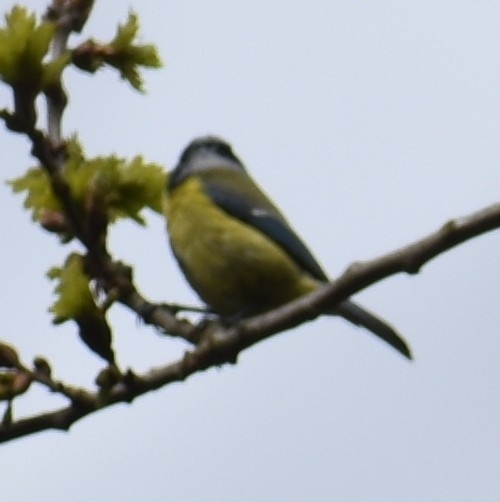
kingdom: Animalia
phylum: Chordata
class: Aves
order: Passeriformes
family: Paridae
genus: Cyanistes
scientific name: Cyanistes caeruleus
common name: Eurasian blue tit
